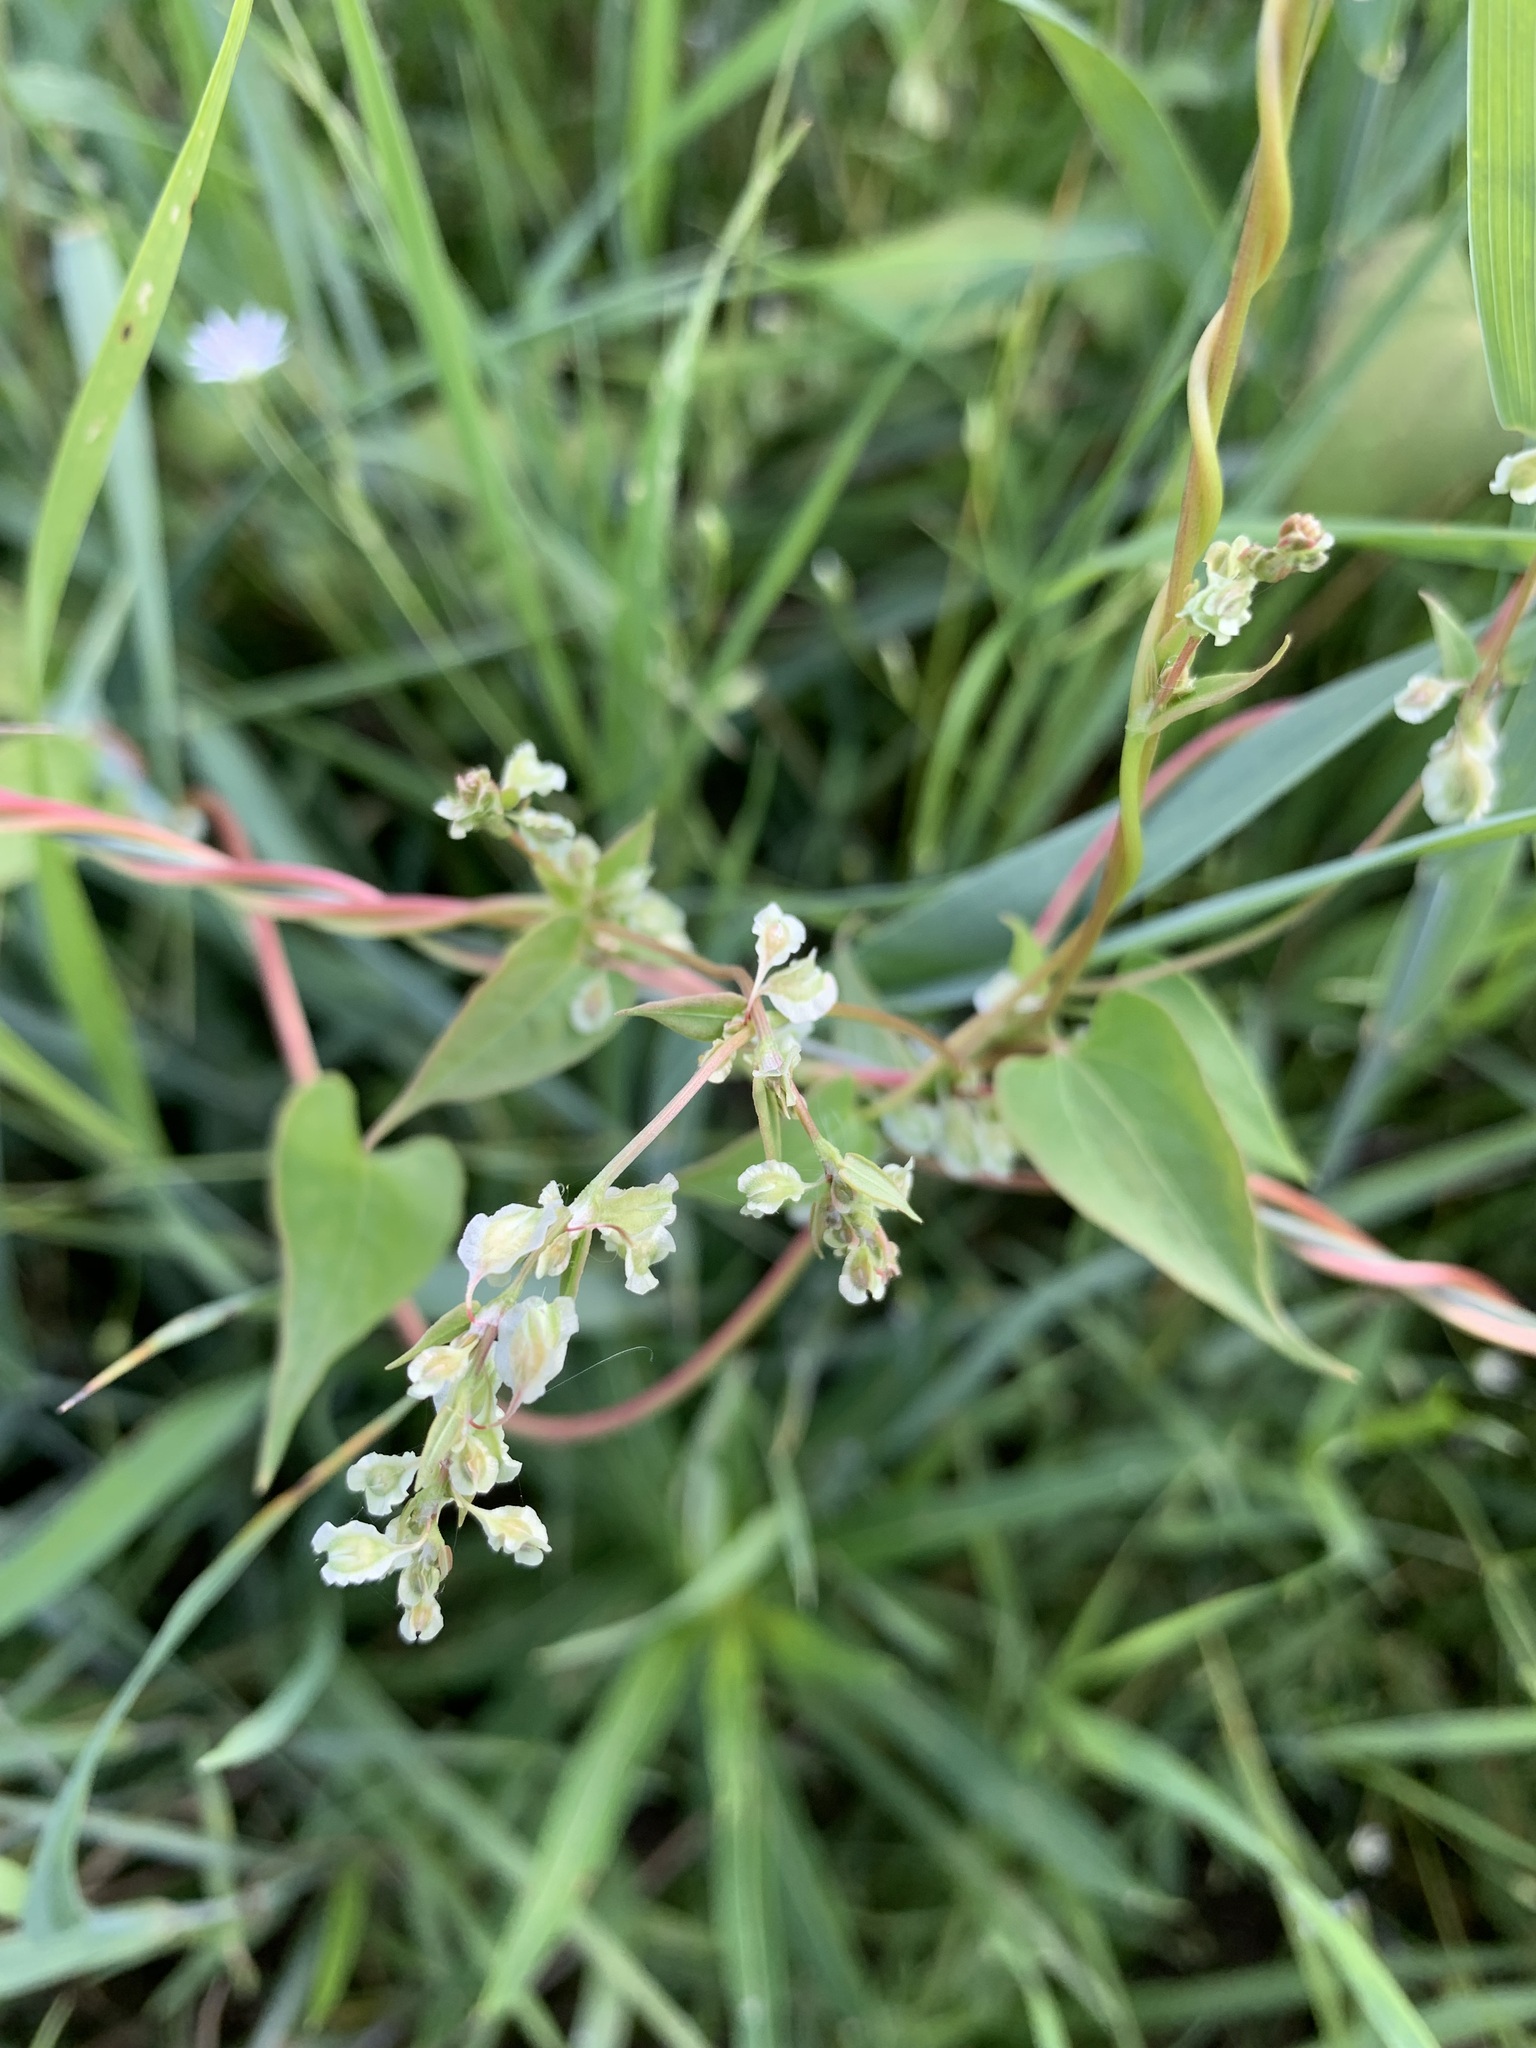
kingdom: Plantae
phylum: Tracheophyta
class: Magnoliopsida
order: Caryophyllales
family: Polygonaceae
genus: Fallopia
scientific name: Fallopia dumetorum
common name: Copse-bindweed
